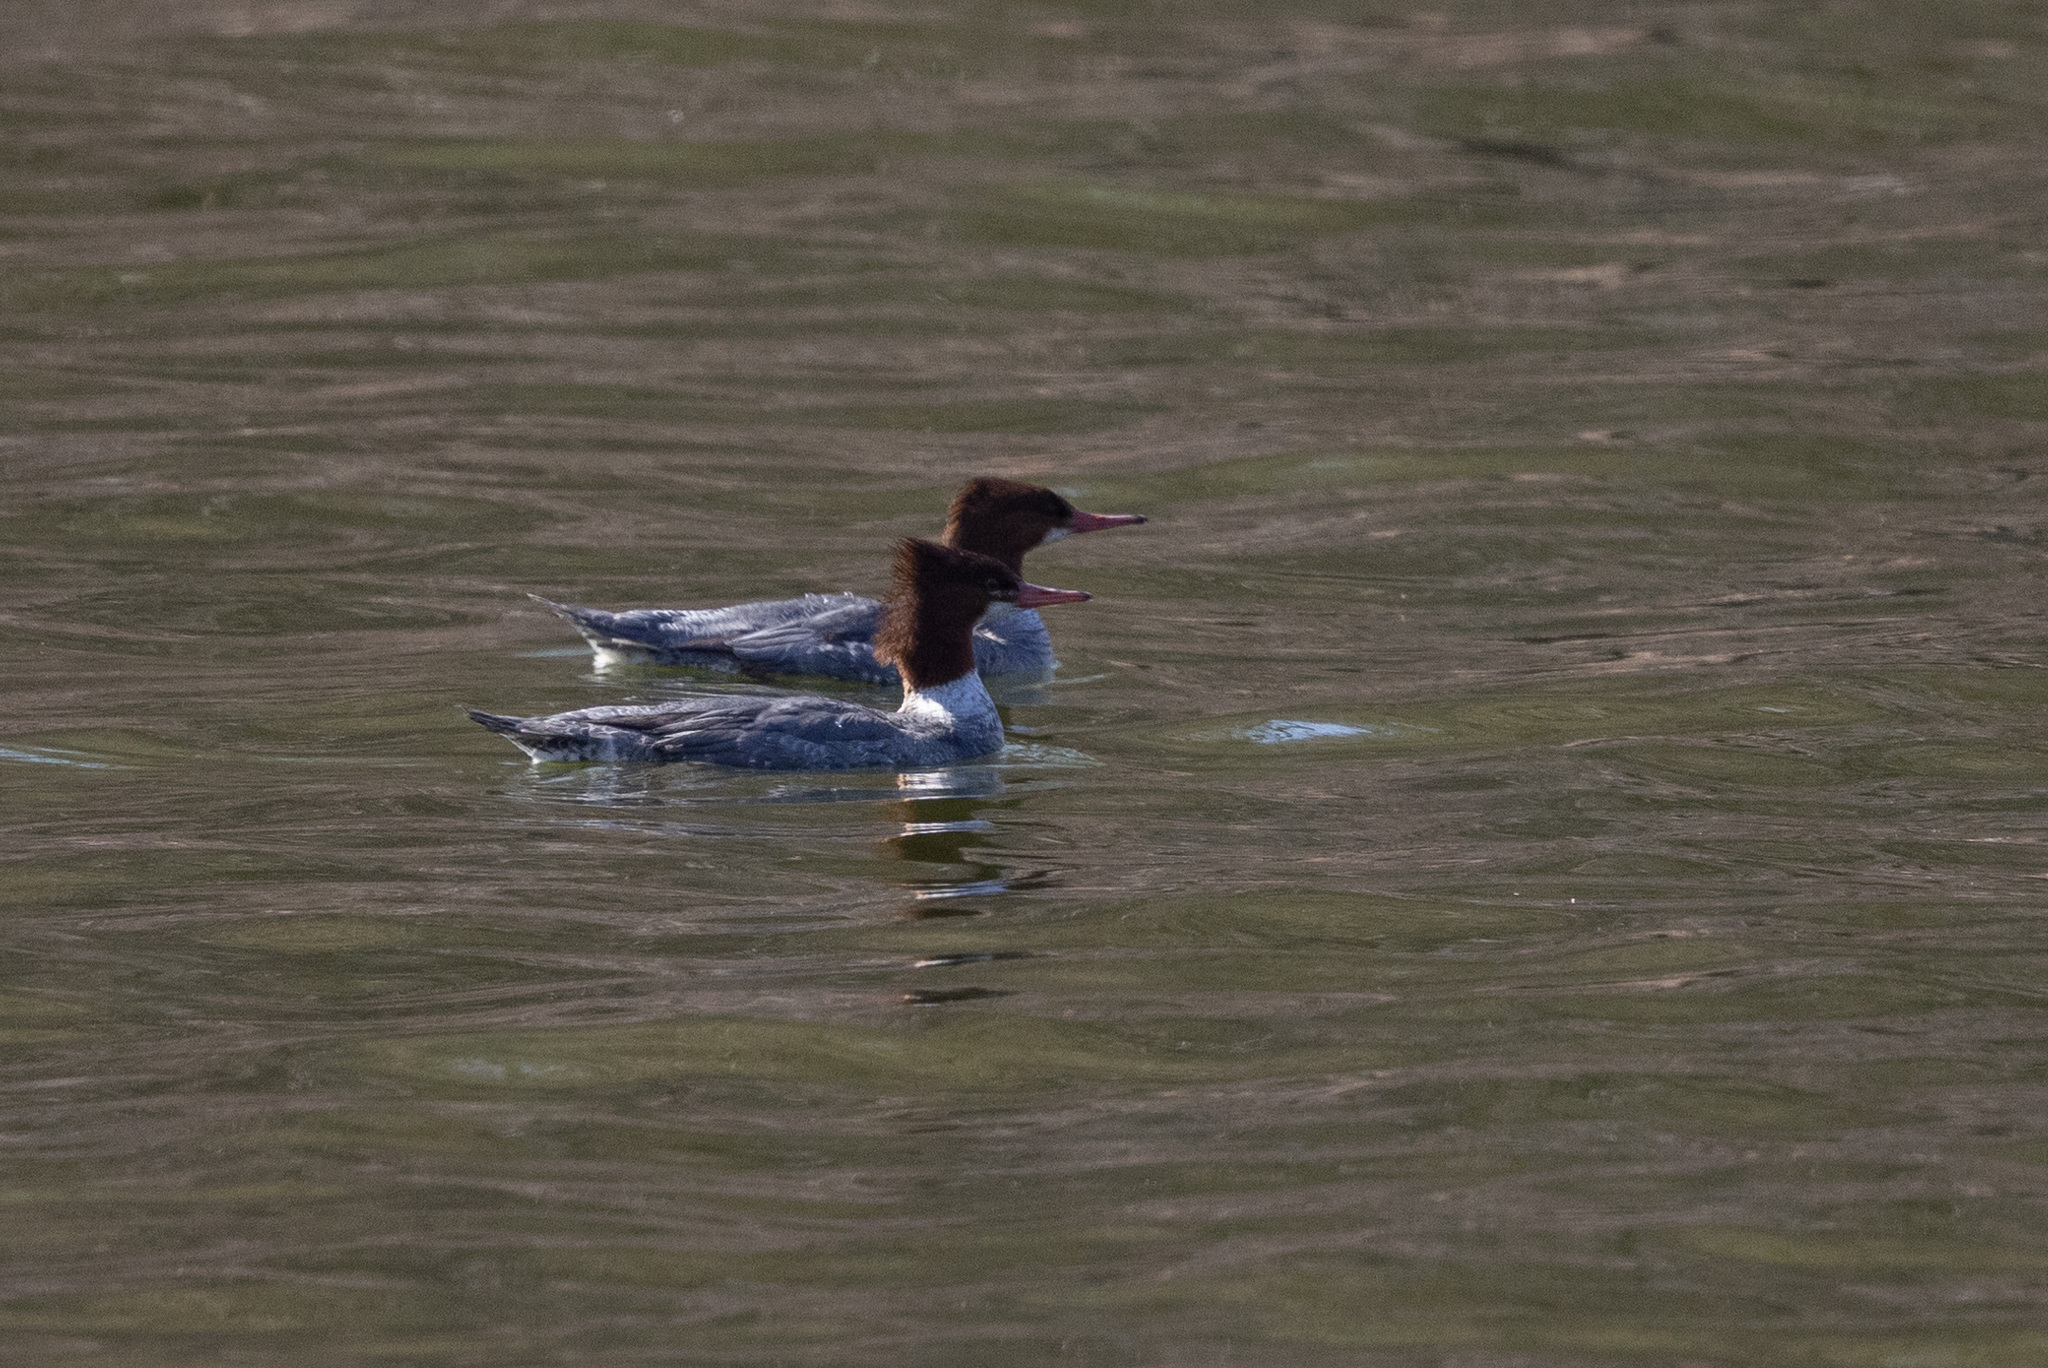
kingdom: Animalia
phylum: Chordata
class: Aves
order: Anseriformes
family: Anatidae
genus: Mergus
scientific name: Mergus merganser
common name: Common merganser
